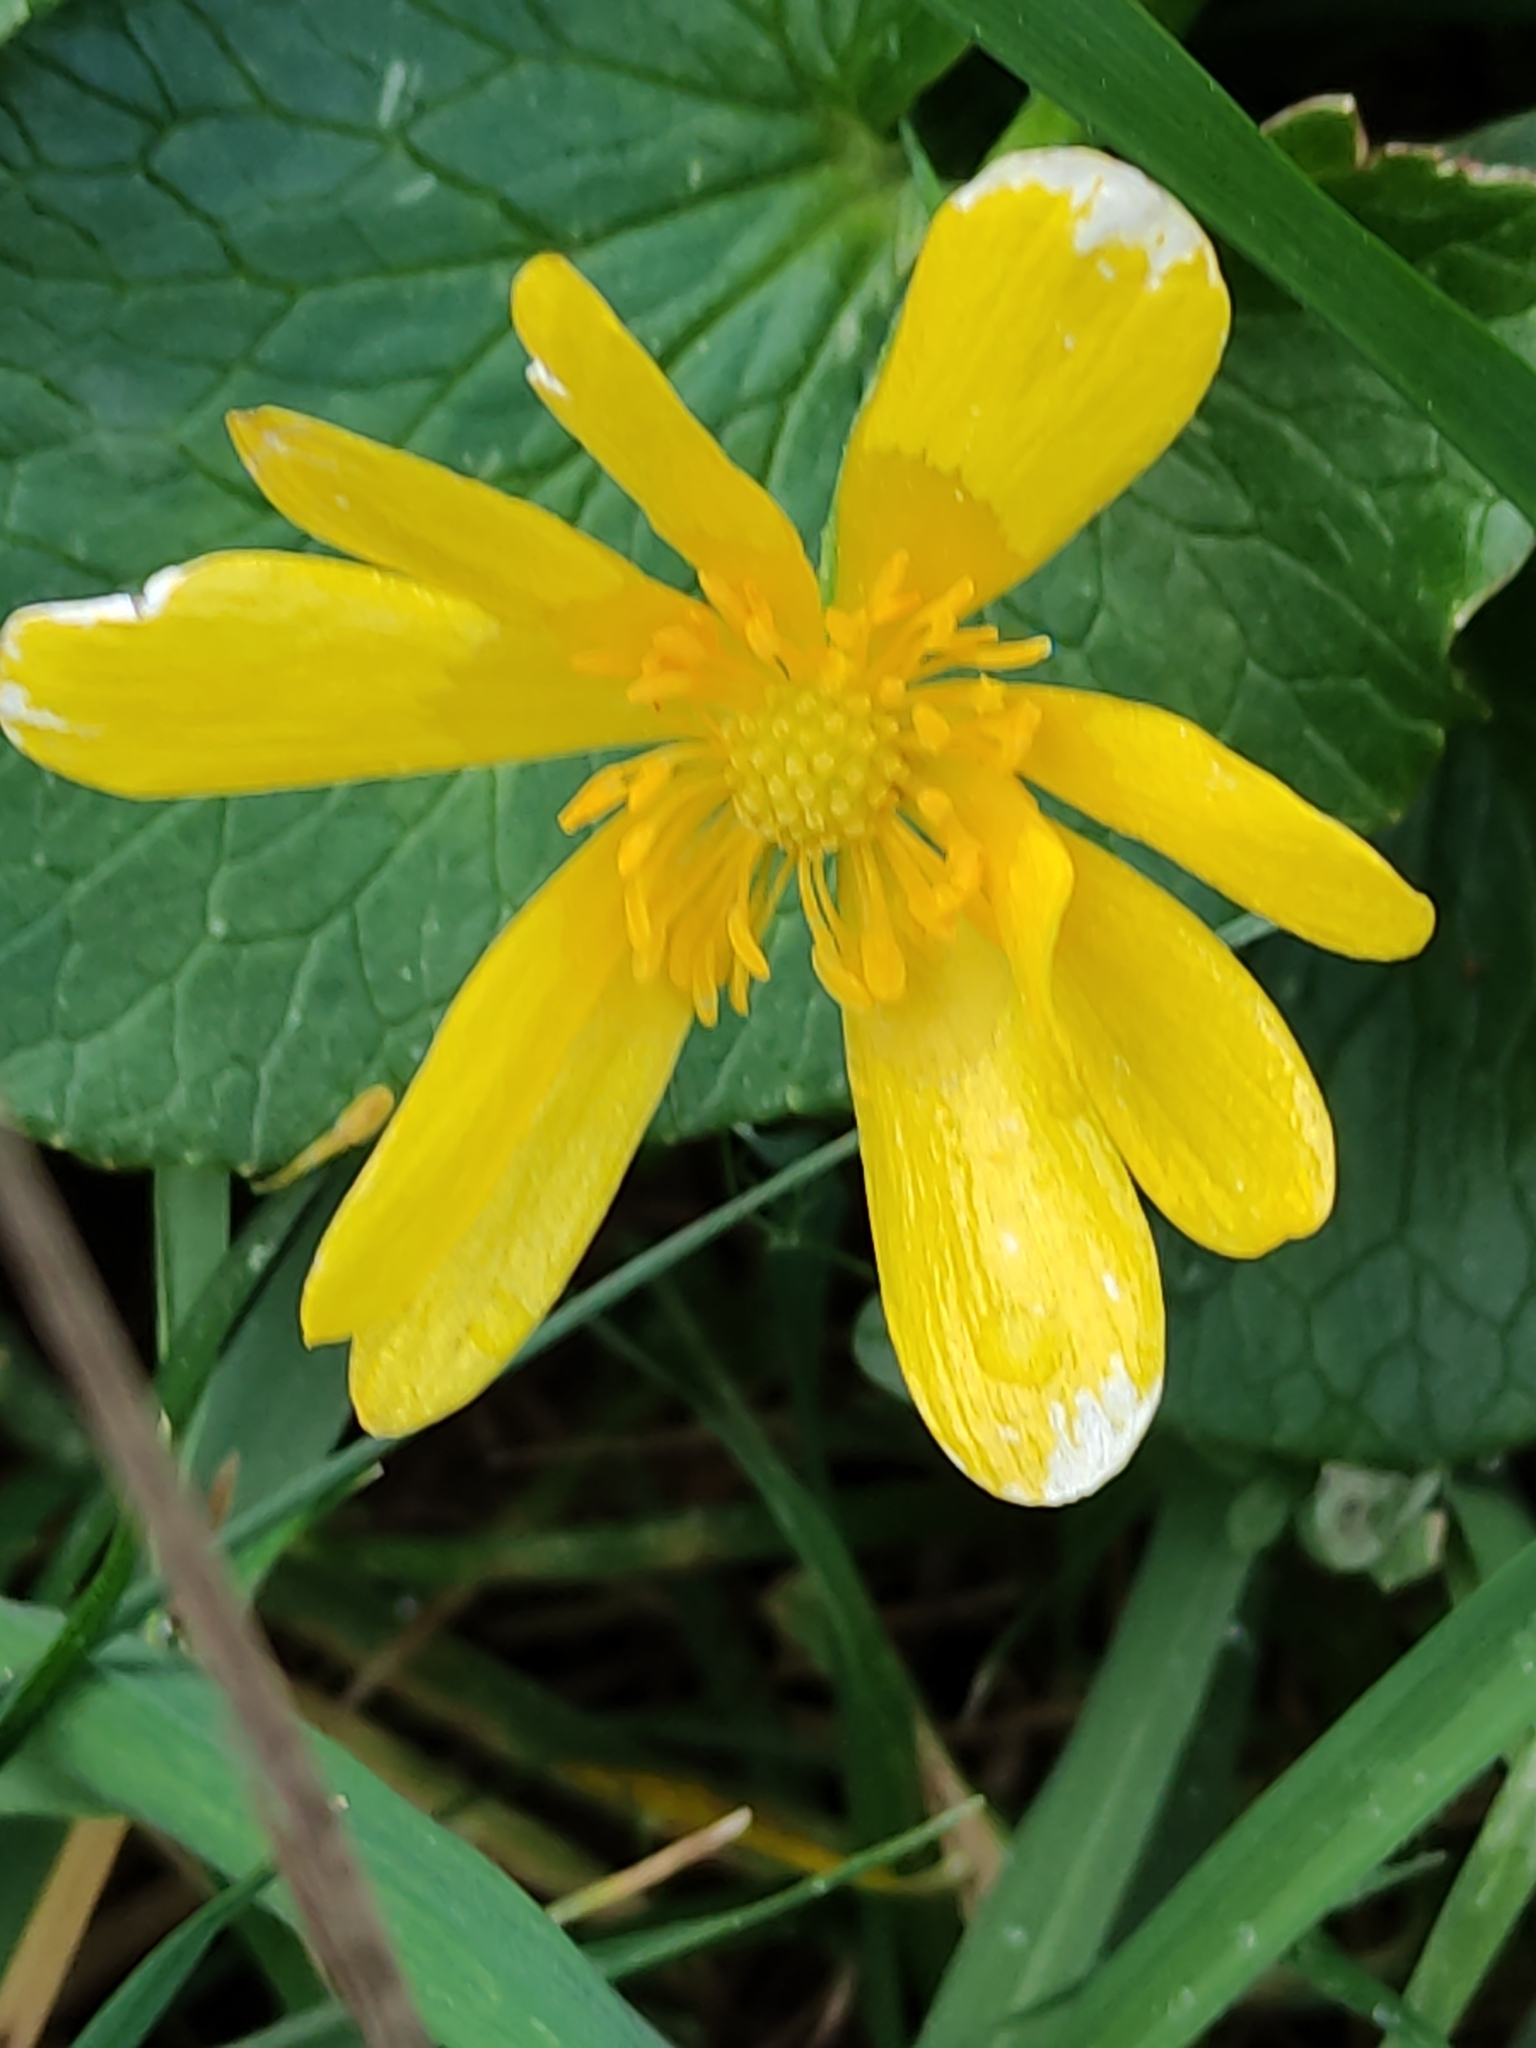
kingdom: Plantae
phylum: Tracheophyta
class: Magnoliopsida
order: Ranunculales
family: Ranunculaceae
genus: Ficaria
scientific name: Ficaria verna
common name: Lesser celandine
